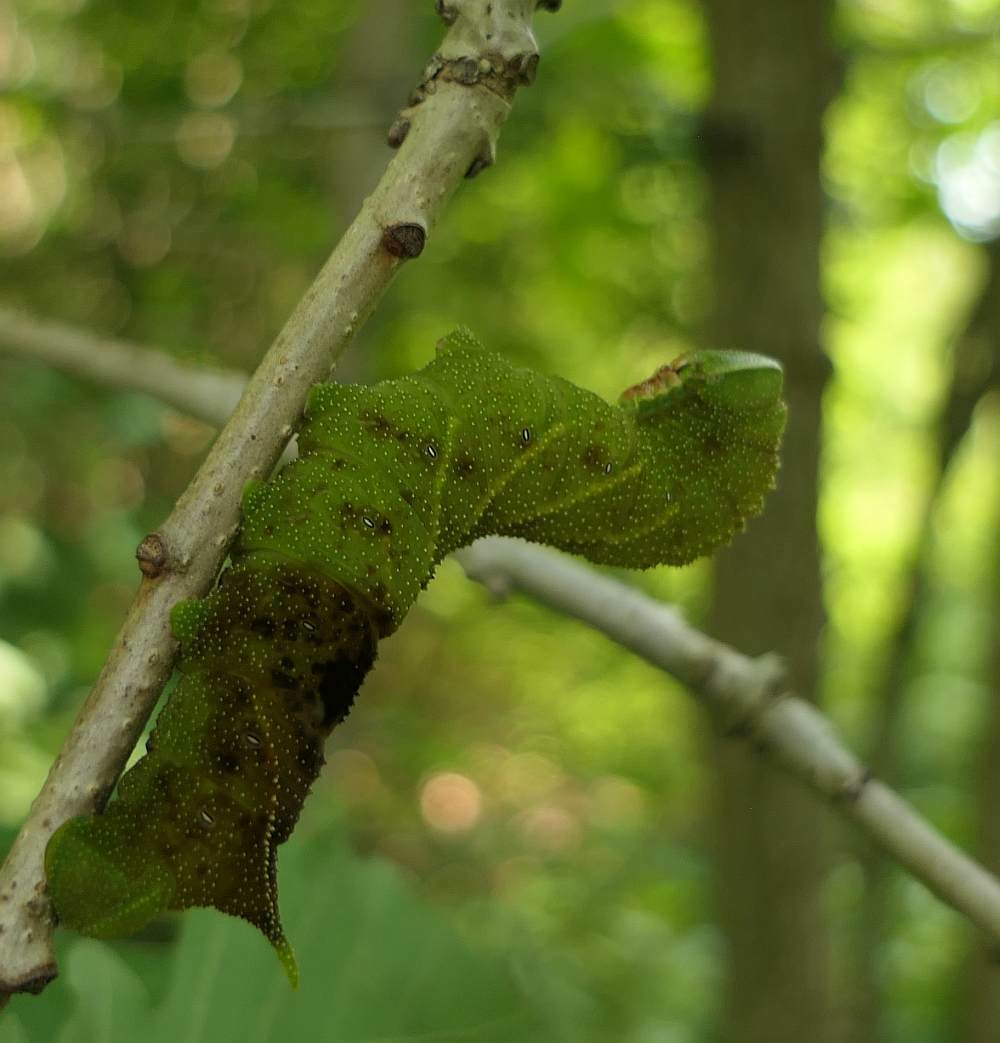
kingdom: Animalia
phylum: Arthropoda
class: Insecta
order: Lepidoptera
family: Sphingidae
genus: Paonias
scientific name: Paonias excaecata
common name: Blind-eyed sphinx
